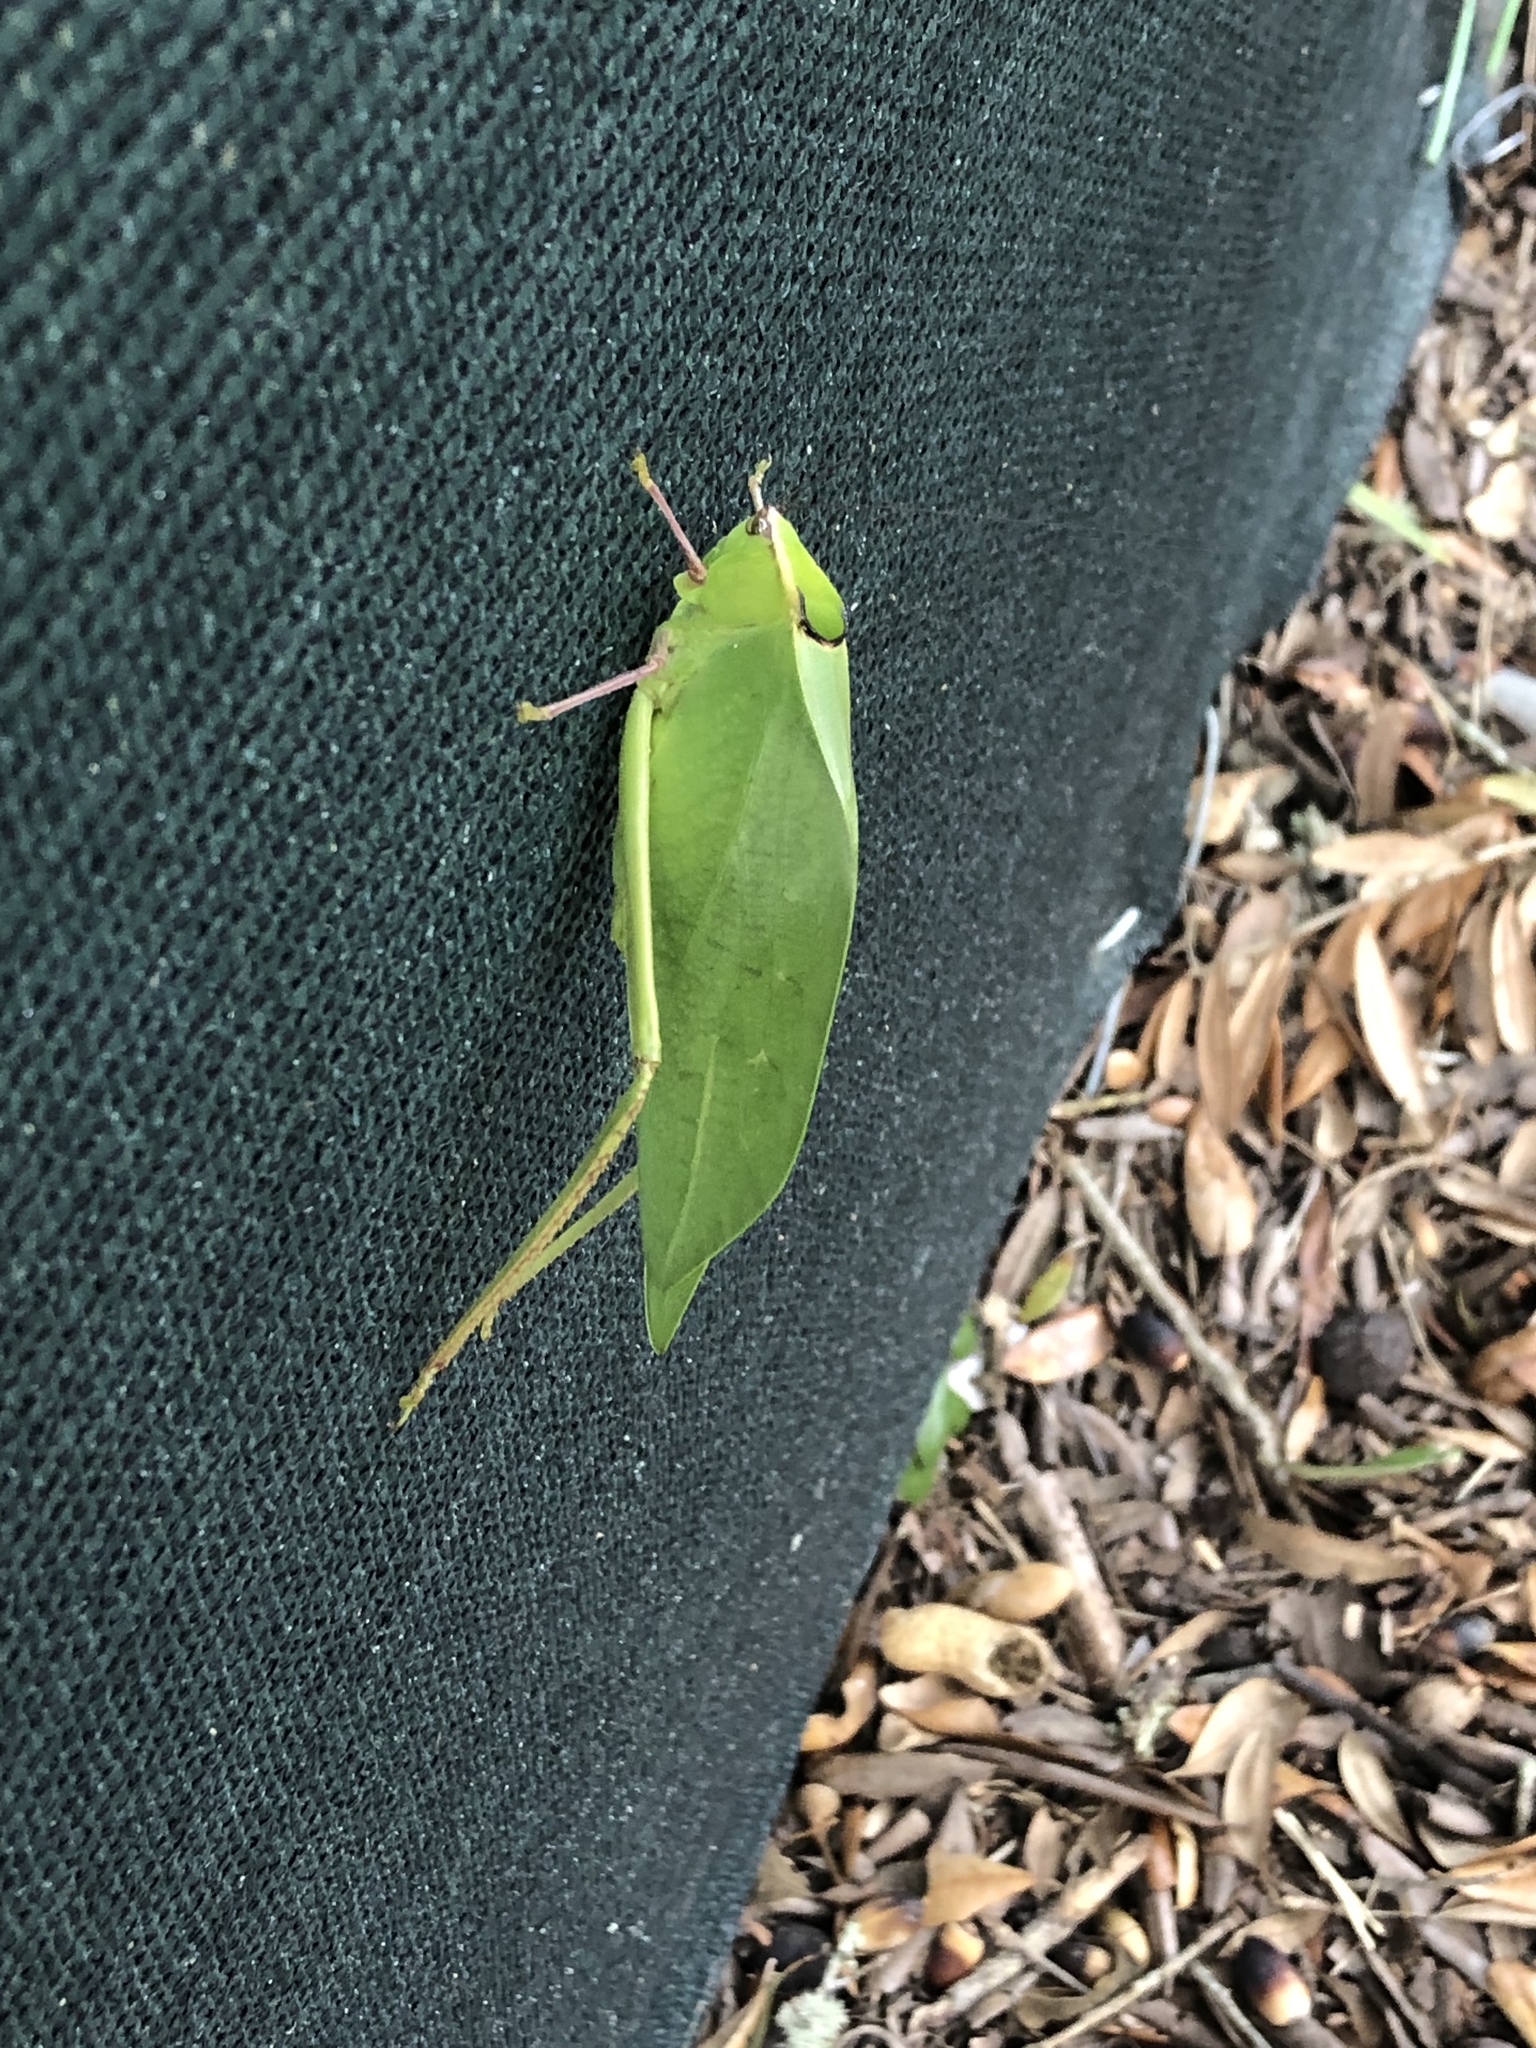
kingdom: Animalia
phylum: Arthropoda
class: Insecta
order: Orthoptera
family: Tettigoniidae
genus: Stilpnochlora
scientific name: Stilpnochlora couloniana
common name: Giant katydid
